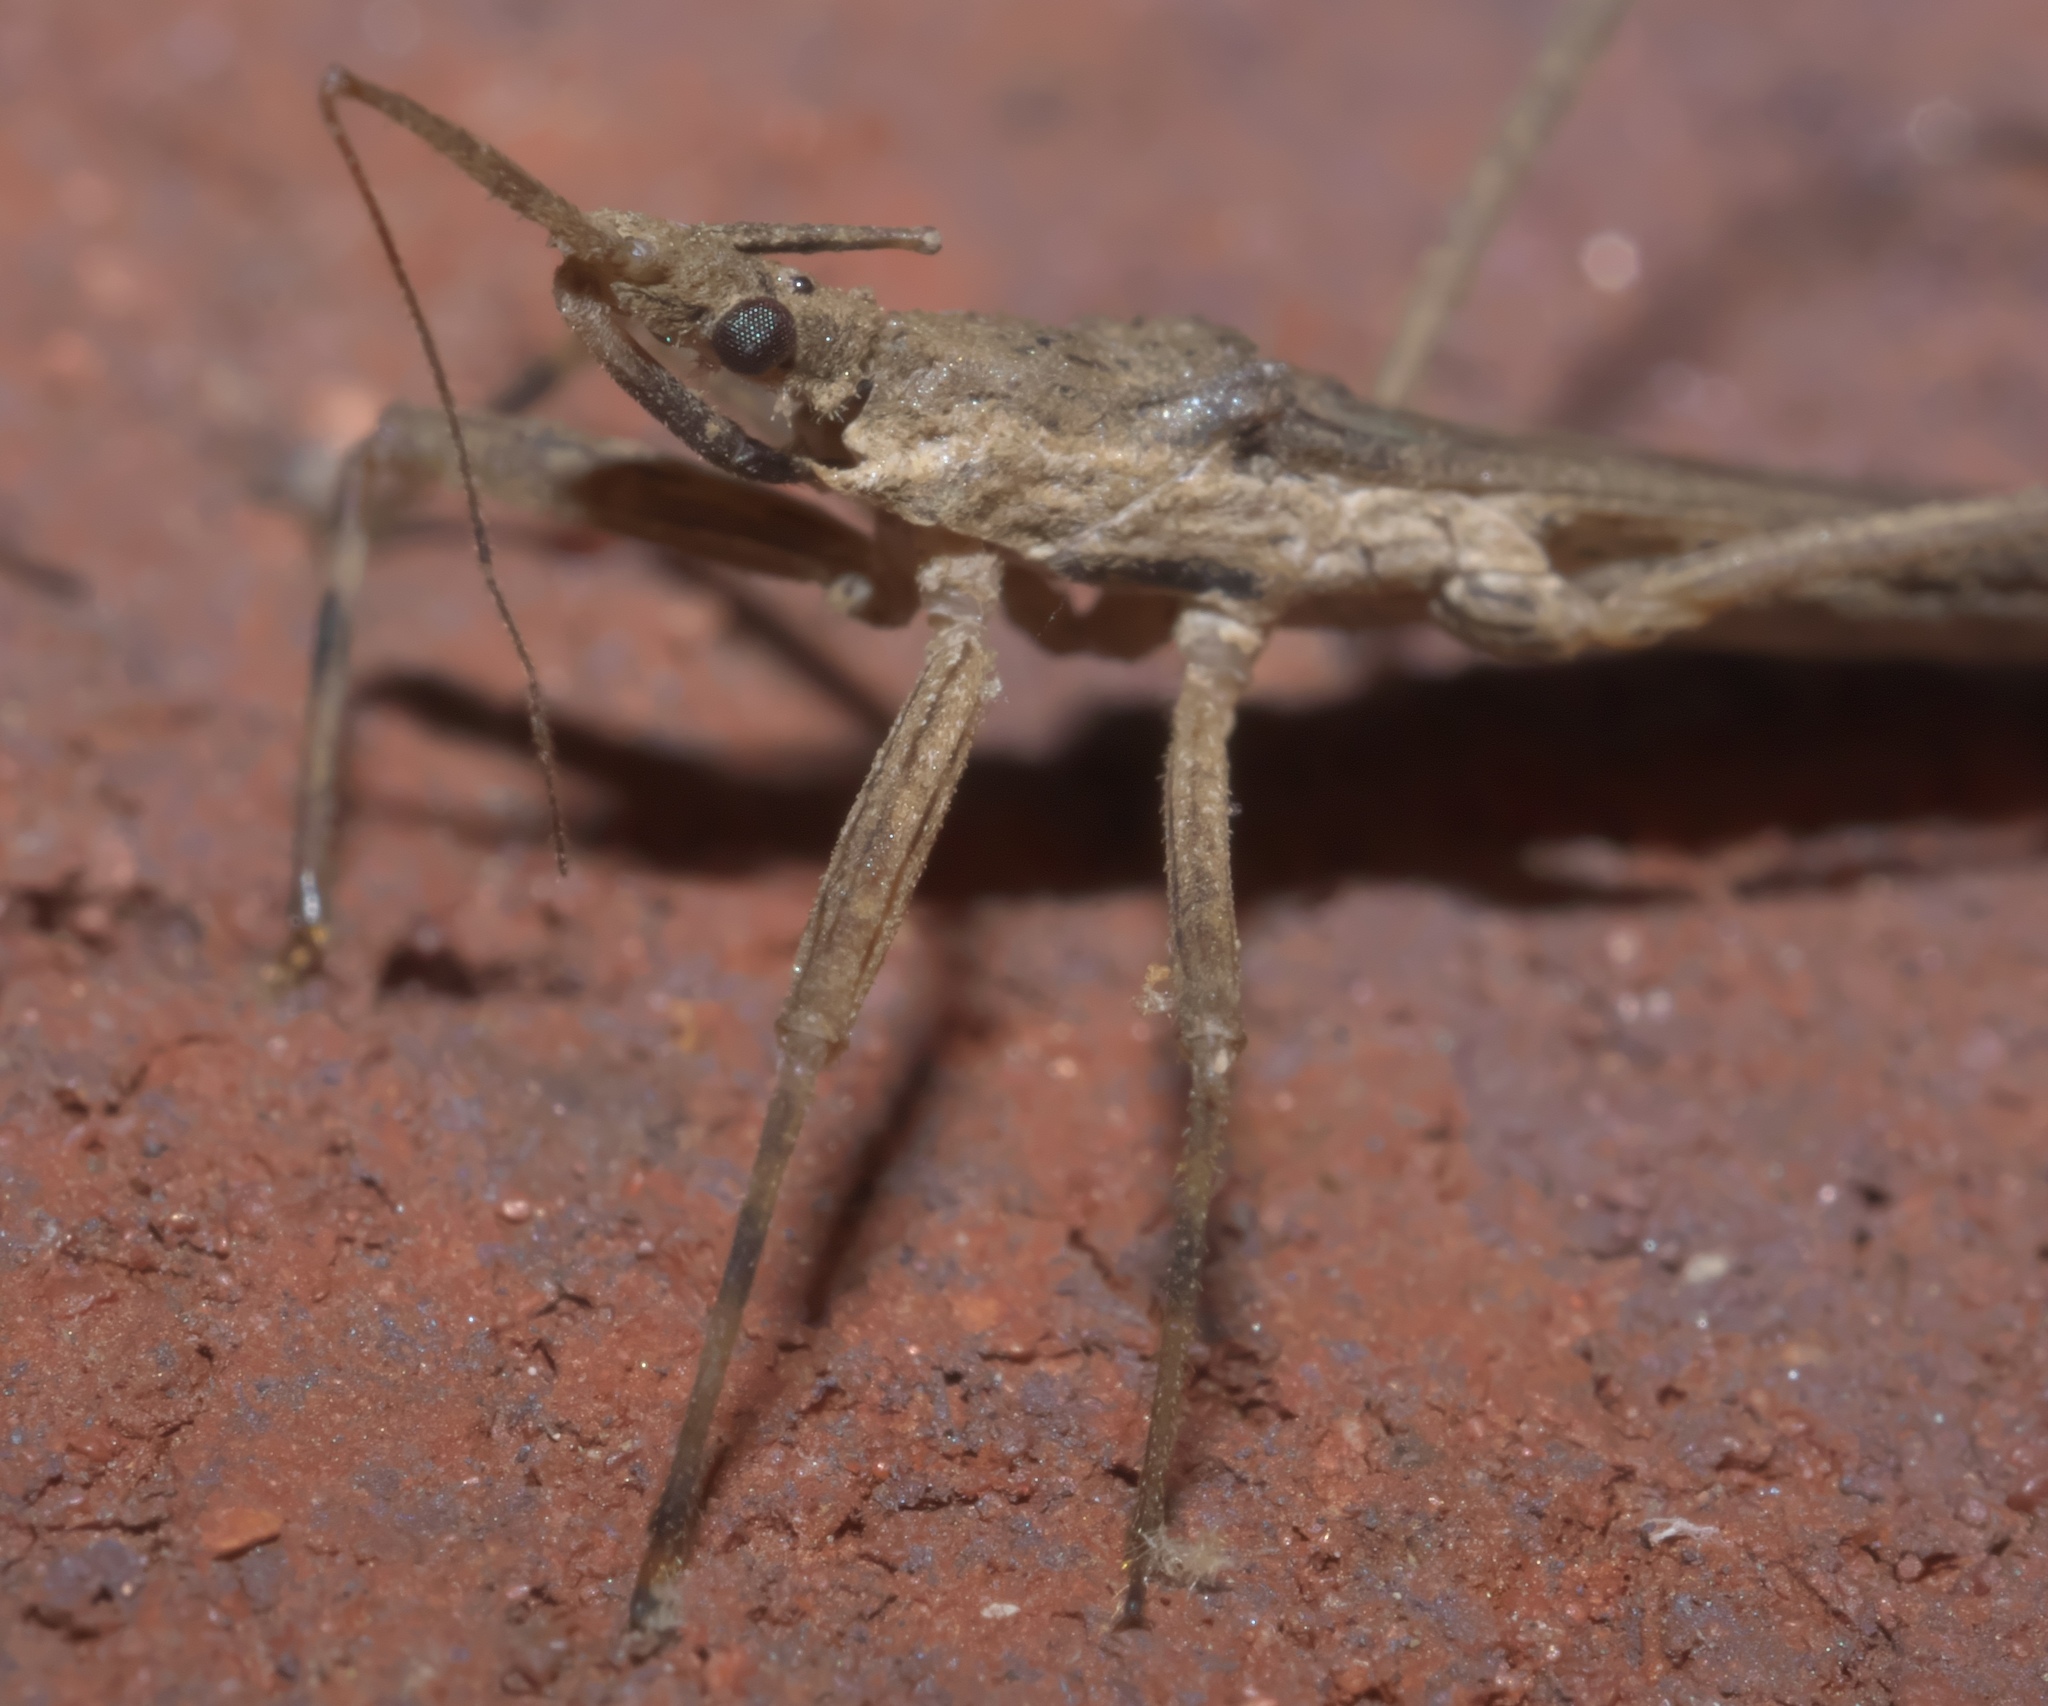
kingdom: Animalia
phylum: Arthropoda
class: Insecta
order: Hemiptera
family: Reduviidae
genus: Pygolampis
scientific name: Pygolampis pectoralis
